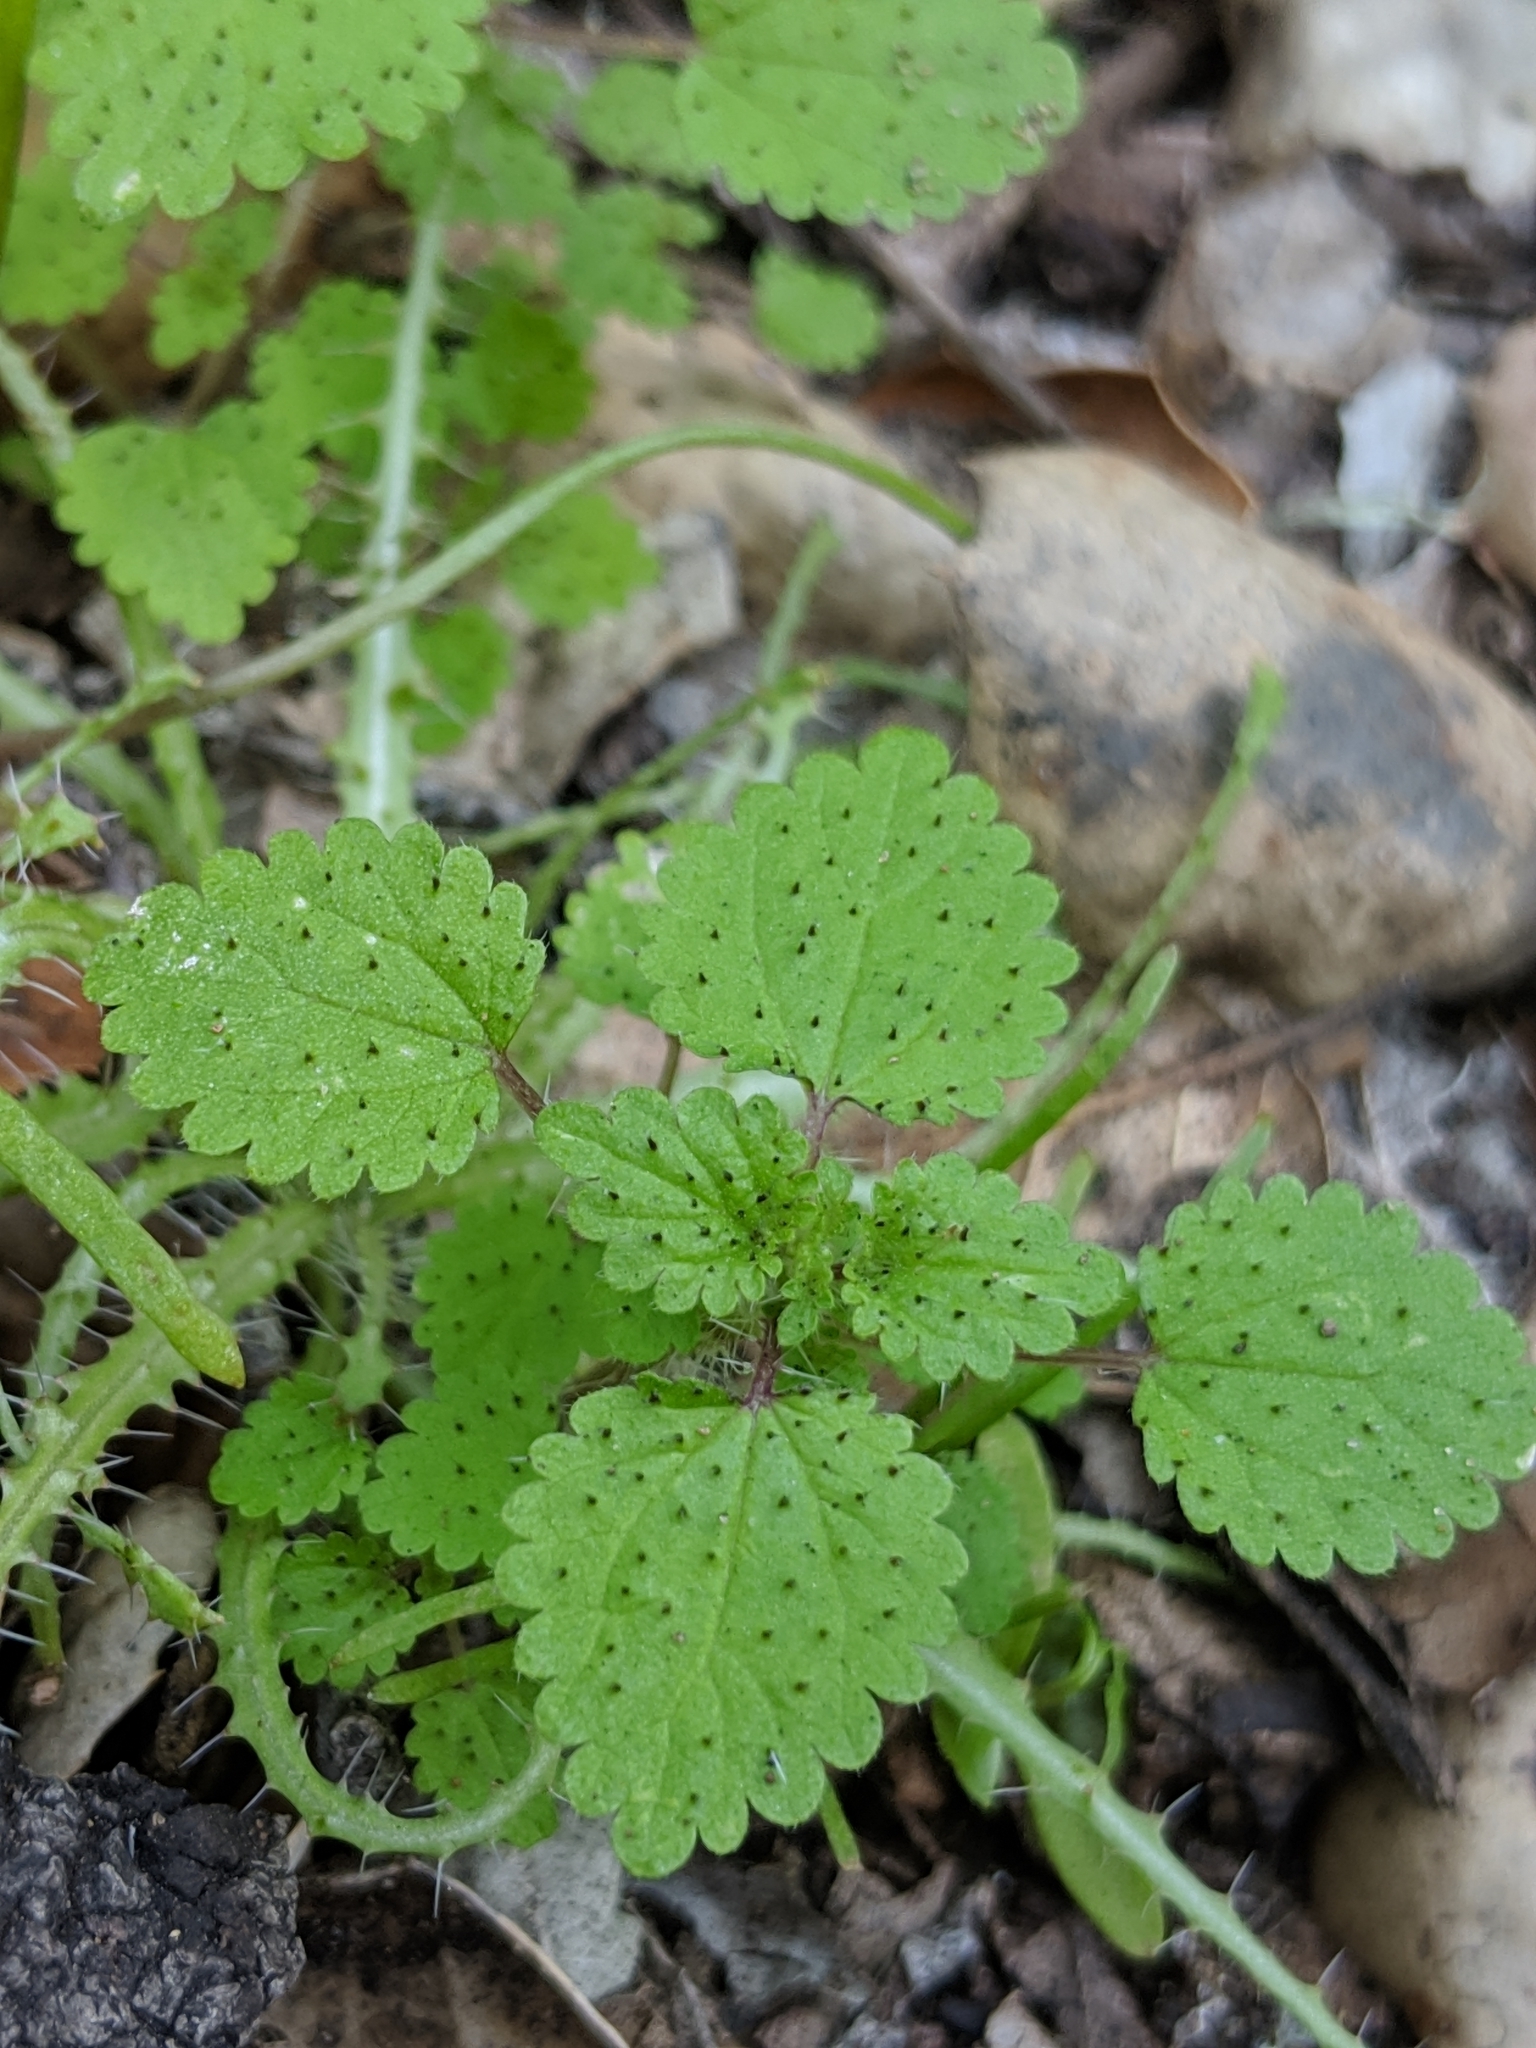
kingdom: Plantae
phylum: Tracheophyta
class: Magnoliopsida
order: Rosales
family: Urticaceae
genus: Hesperocnide
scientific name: Hesperocnide tenella
